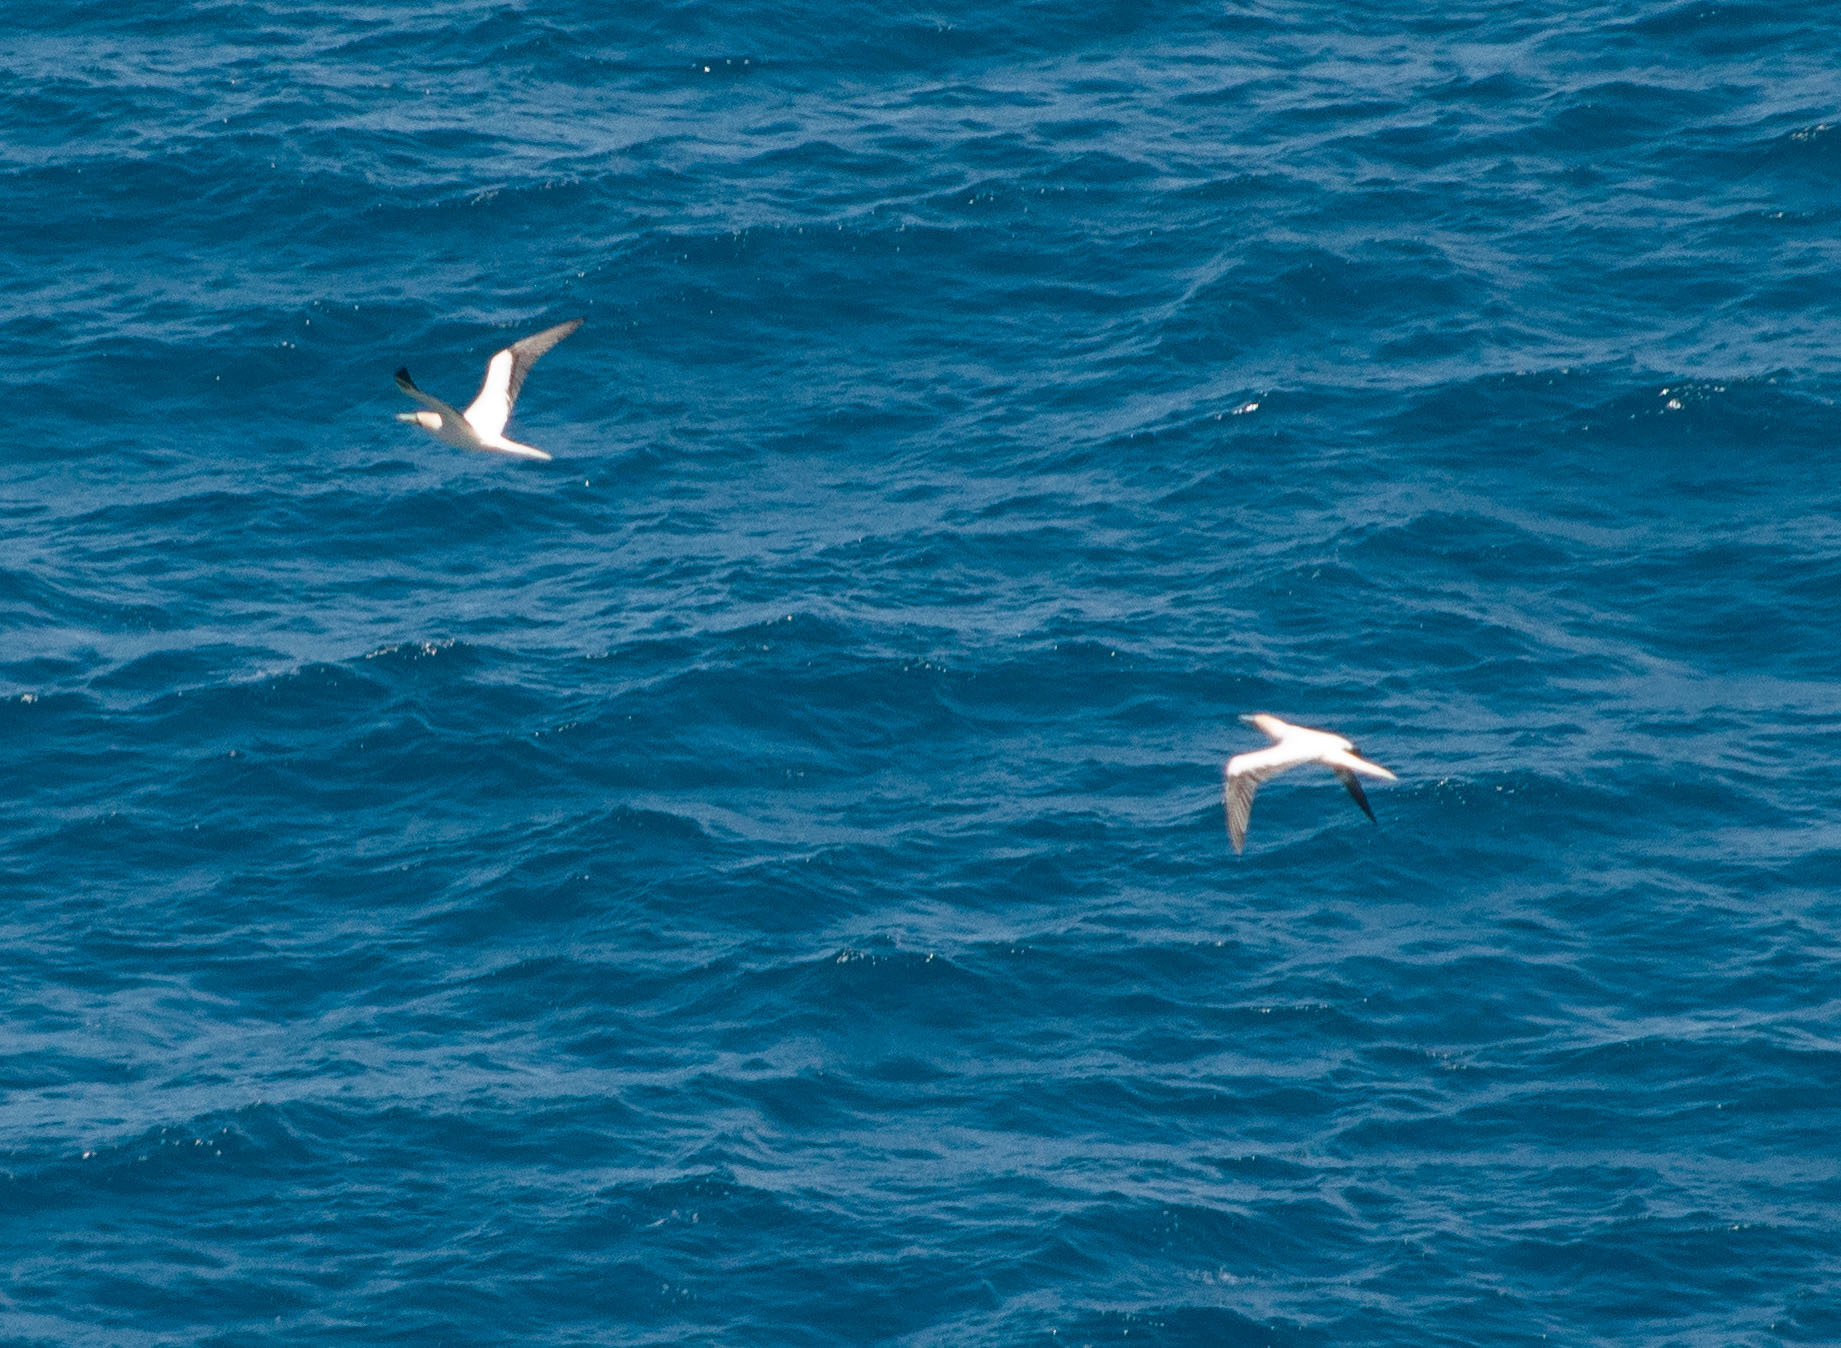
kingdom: Animalia
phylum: Chordata
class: Aves
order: Suliformes
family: Sulidae
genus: Sula
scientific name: Sula sula
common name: Red-footed booby
